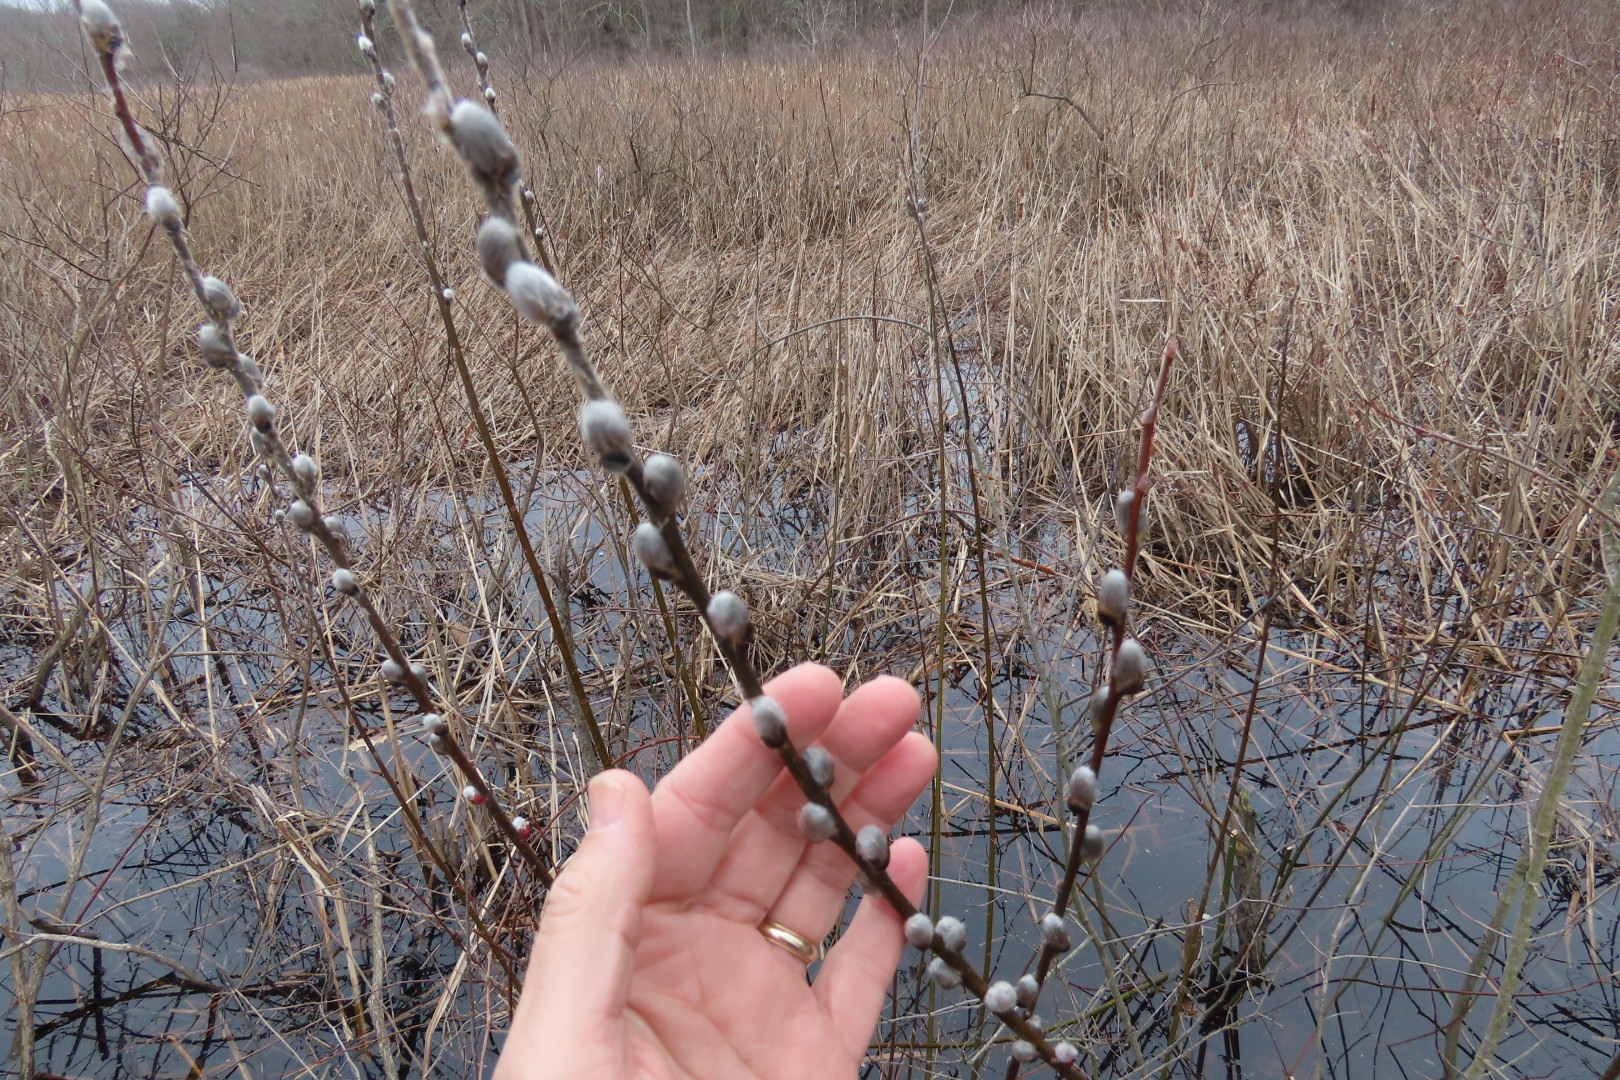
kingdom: Plantae
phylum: Tracheophyta
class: Magnoliopsida
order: Malpighiales
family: Salicaceae
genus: Salix
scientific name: Salix discolor
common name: Glaucous willow
